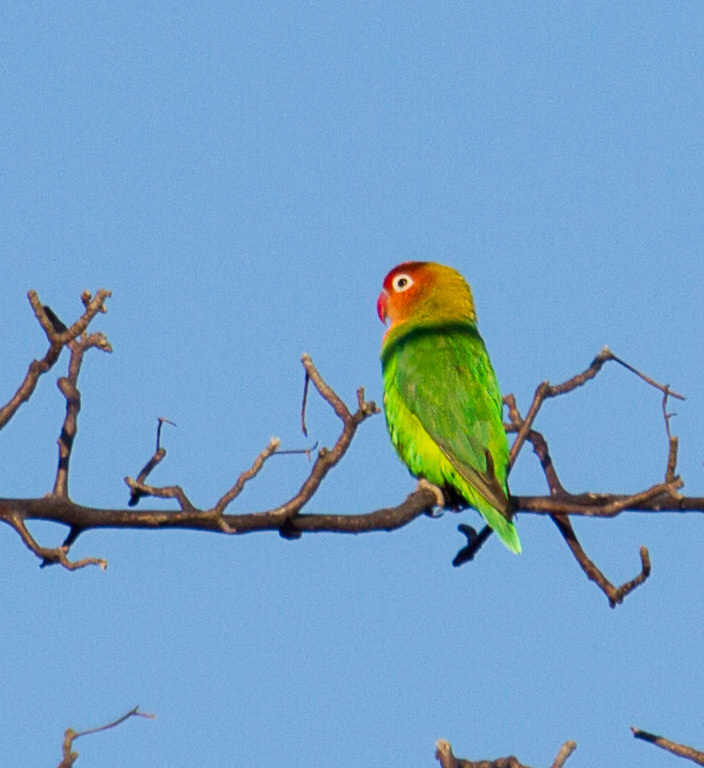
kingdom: Animalia
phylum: Chordata
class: Aves
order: Psittaciformes
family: Psittacidae
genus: Agapornis
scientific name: Agapornis lilianae
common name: Lilian's lovebird
